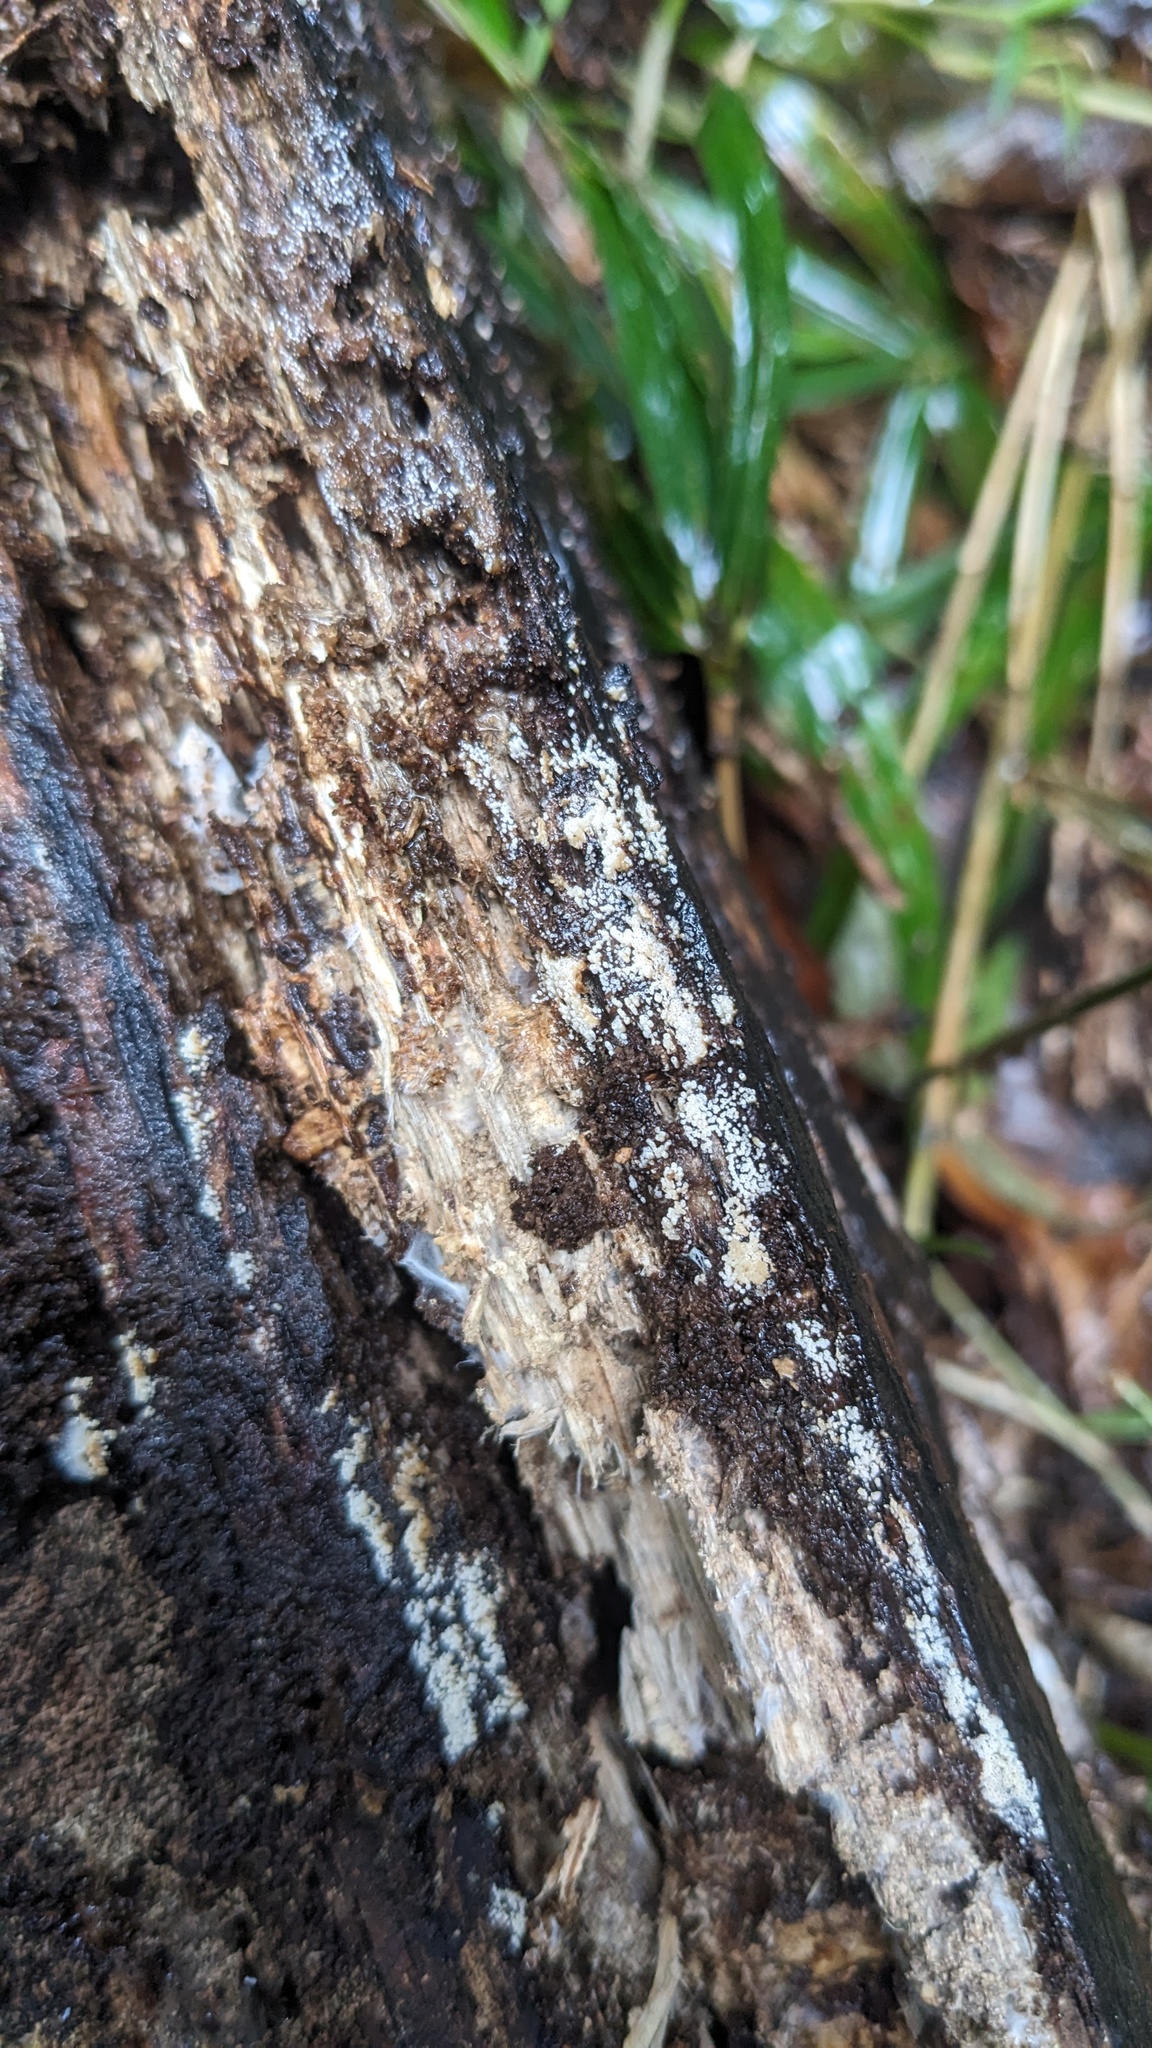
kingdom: Fungi
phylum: Basidiomycota
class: Agaricomycetes
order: Agaricales
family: Marasmiaceae
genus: Henningsomyces
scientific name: Henningsomyces candidus
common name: White tubelet
